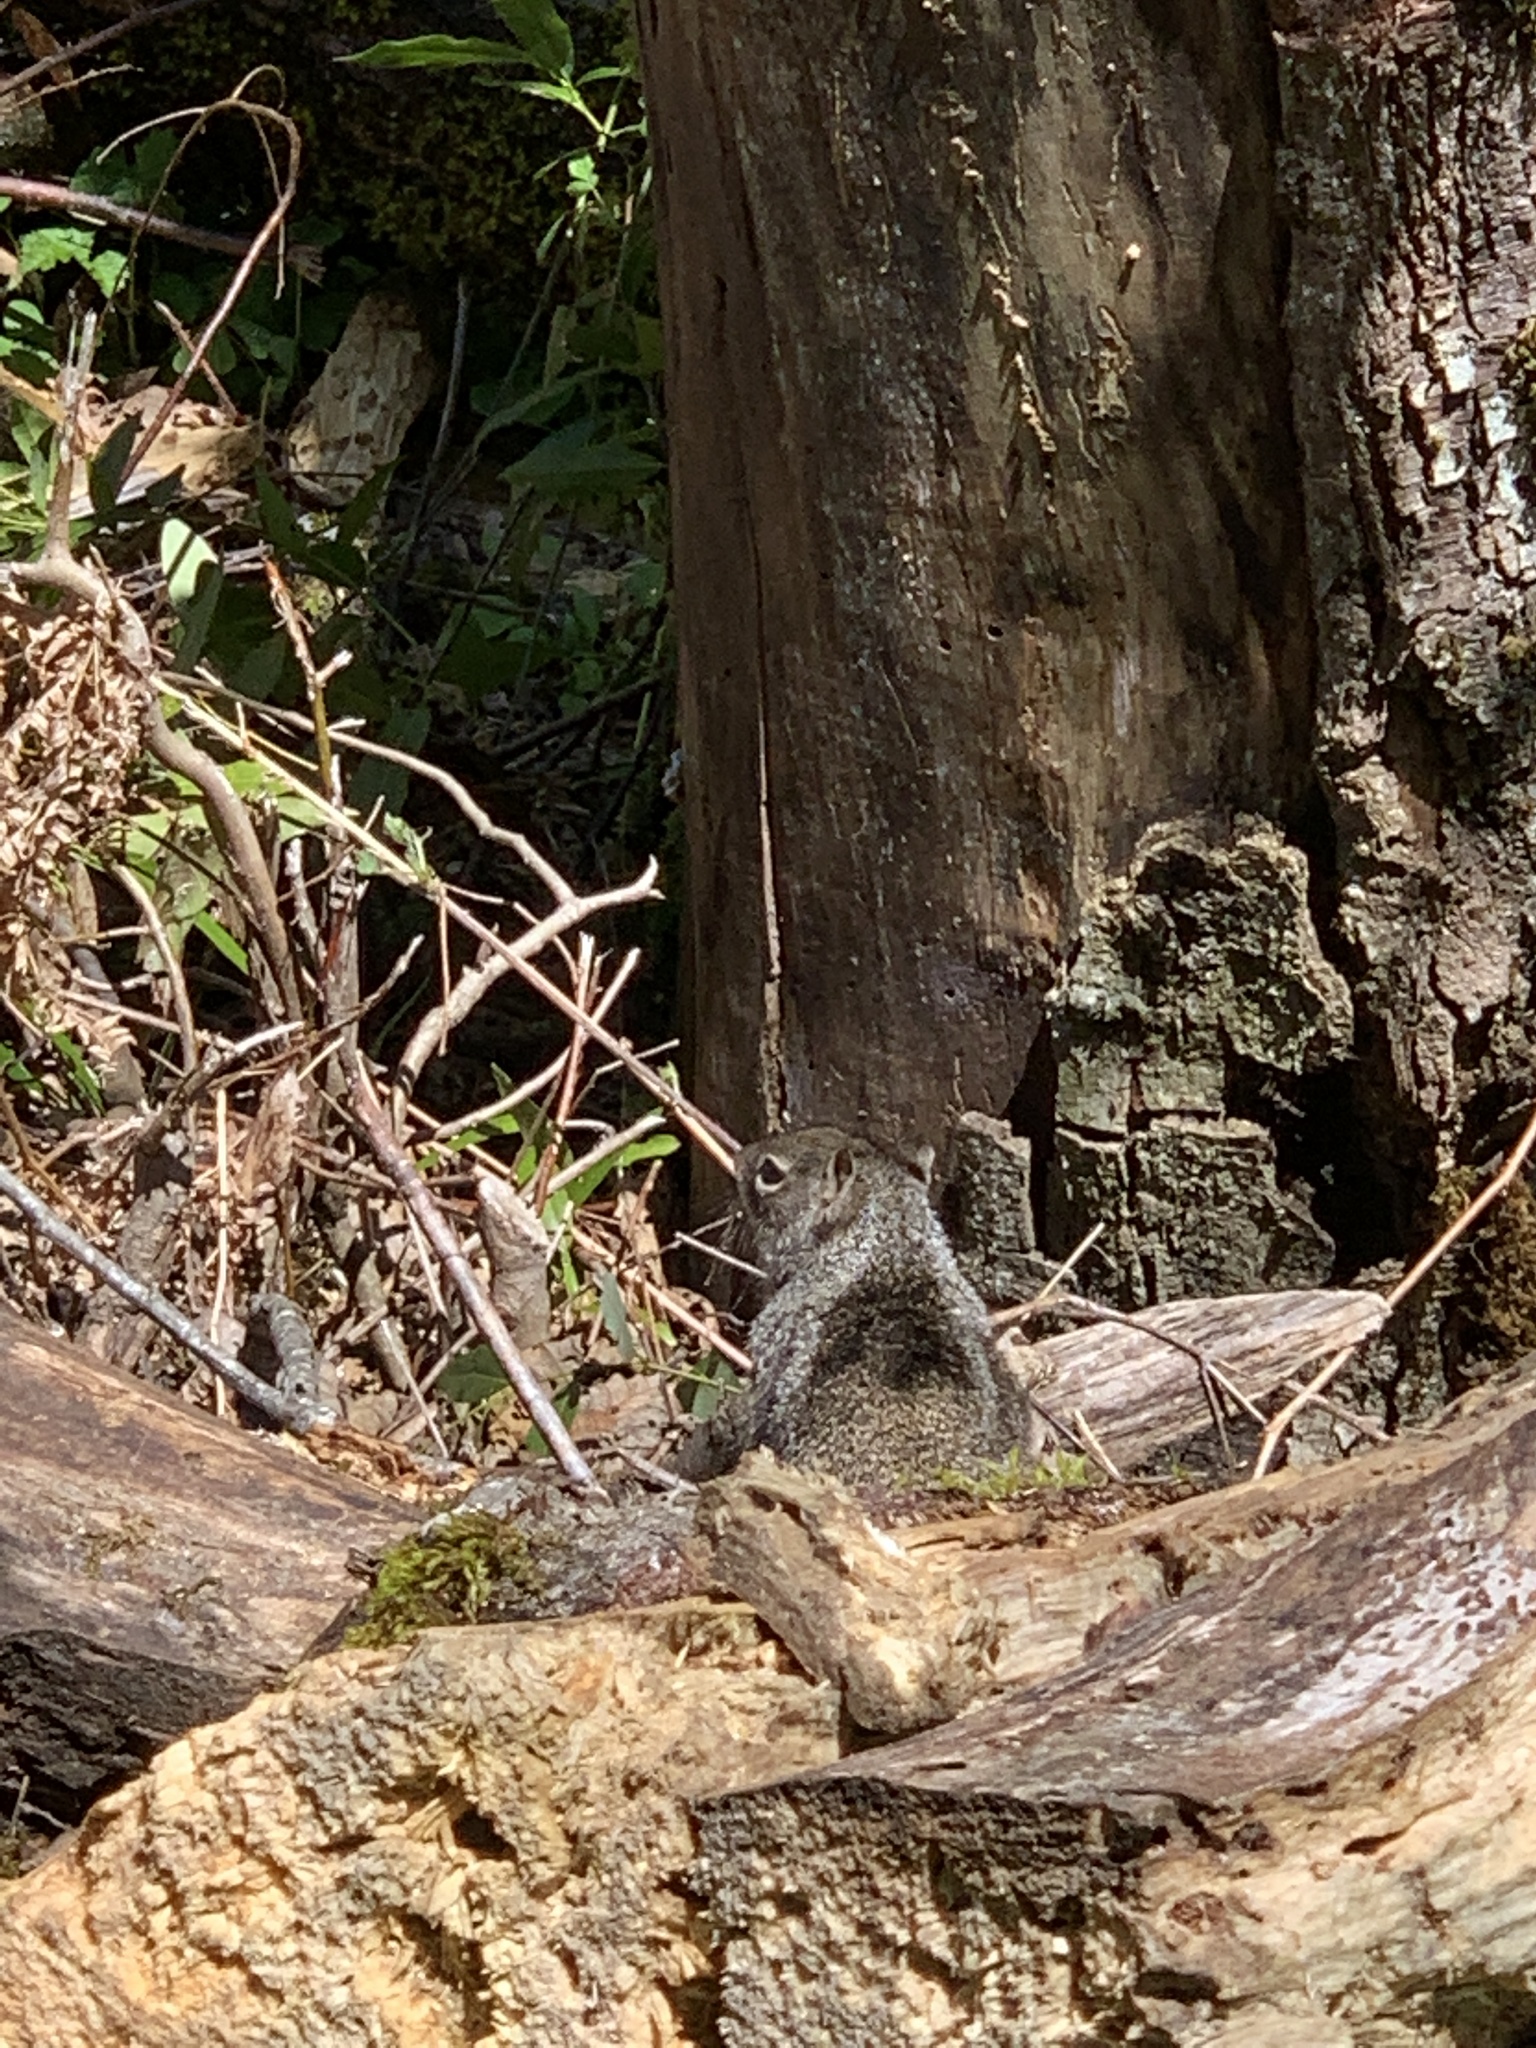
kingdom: Animalia
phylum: Chordata
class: Mammalia
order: Rodentia
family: Sciuridae
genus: Otospermophilus
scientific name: Otospermophilus beecheyi
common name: California ground squirrel
